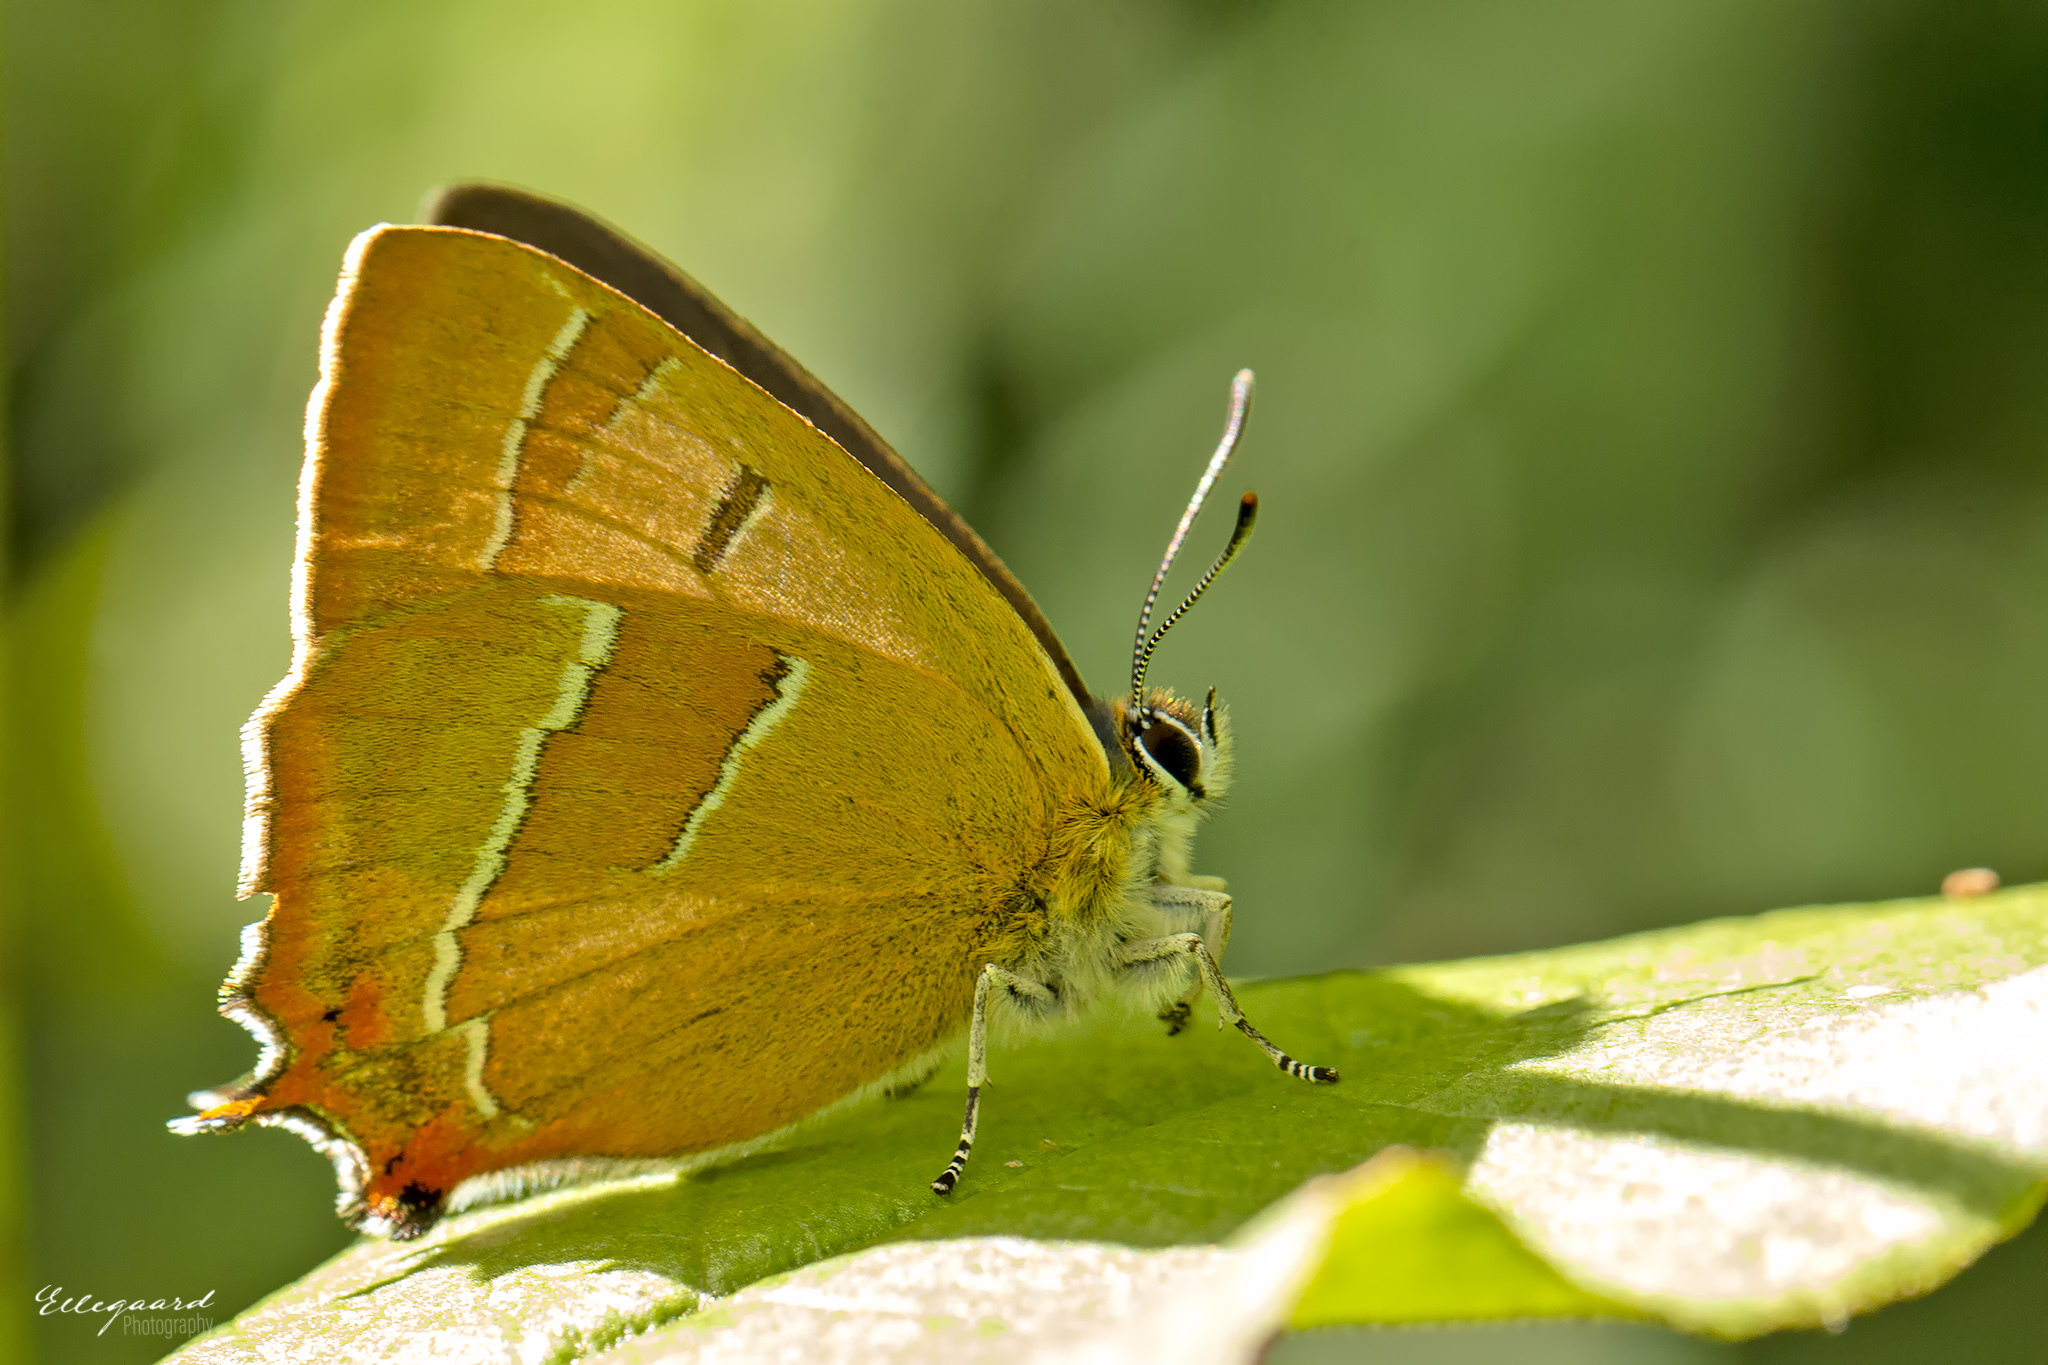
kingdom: Animalia
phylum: Arthropoda
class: Insecta
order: Lepidoptera
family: Lycaenidae
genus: Thecla
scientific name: Thecla betulae
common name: Brown hairstreak
